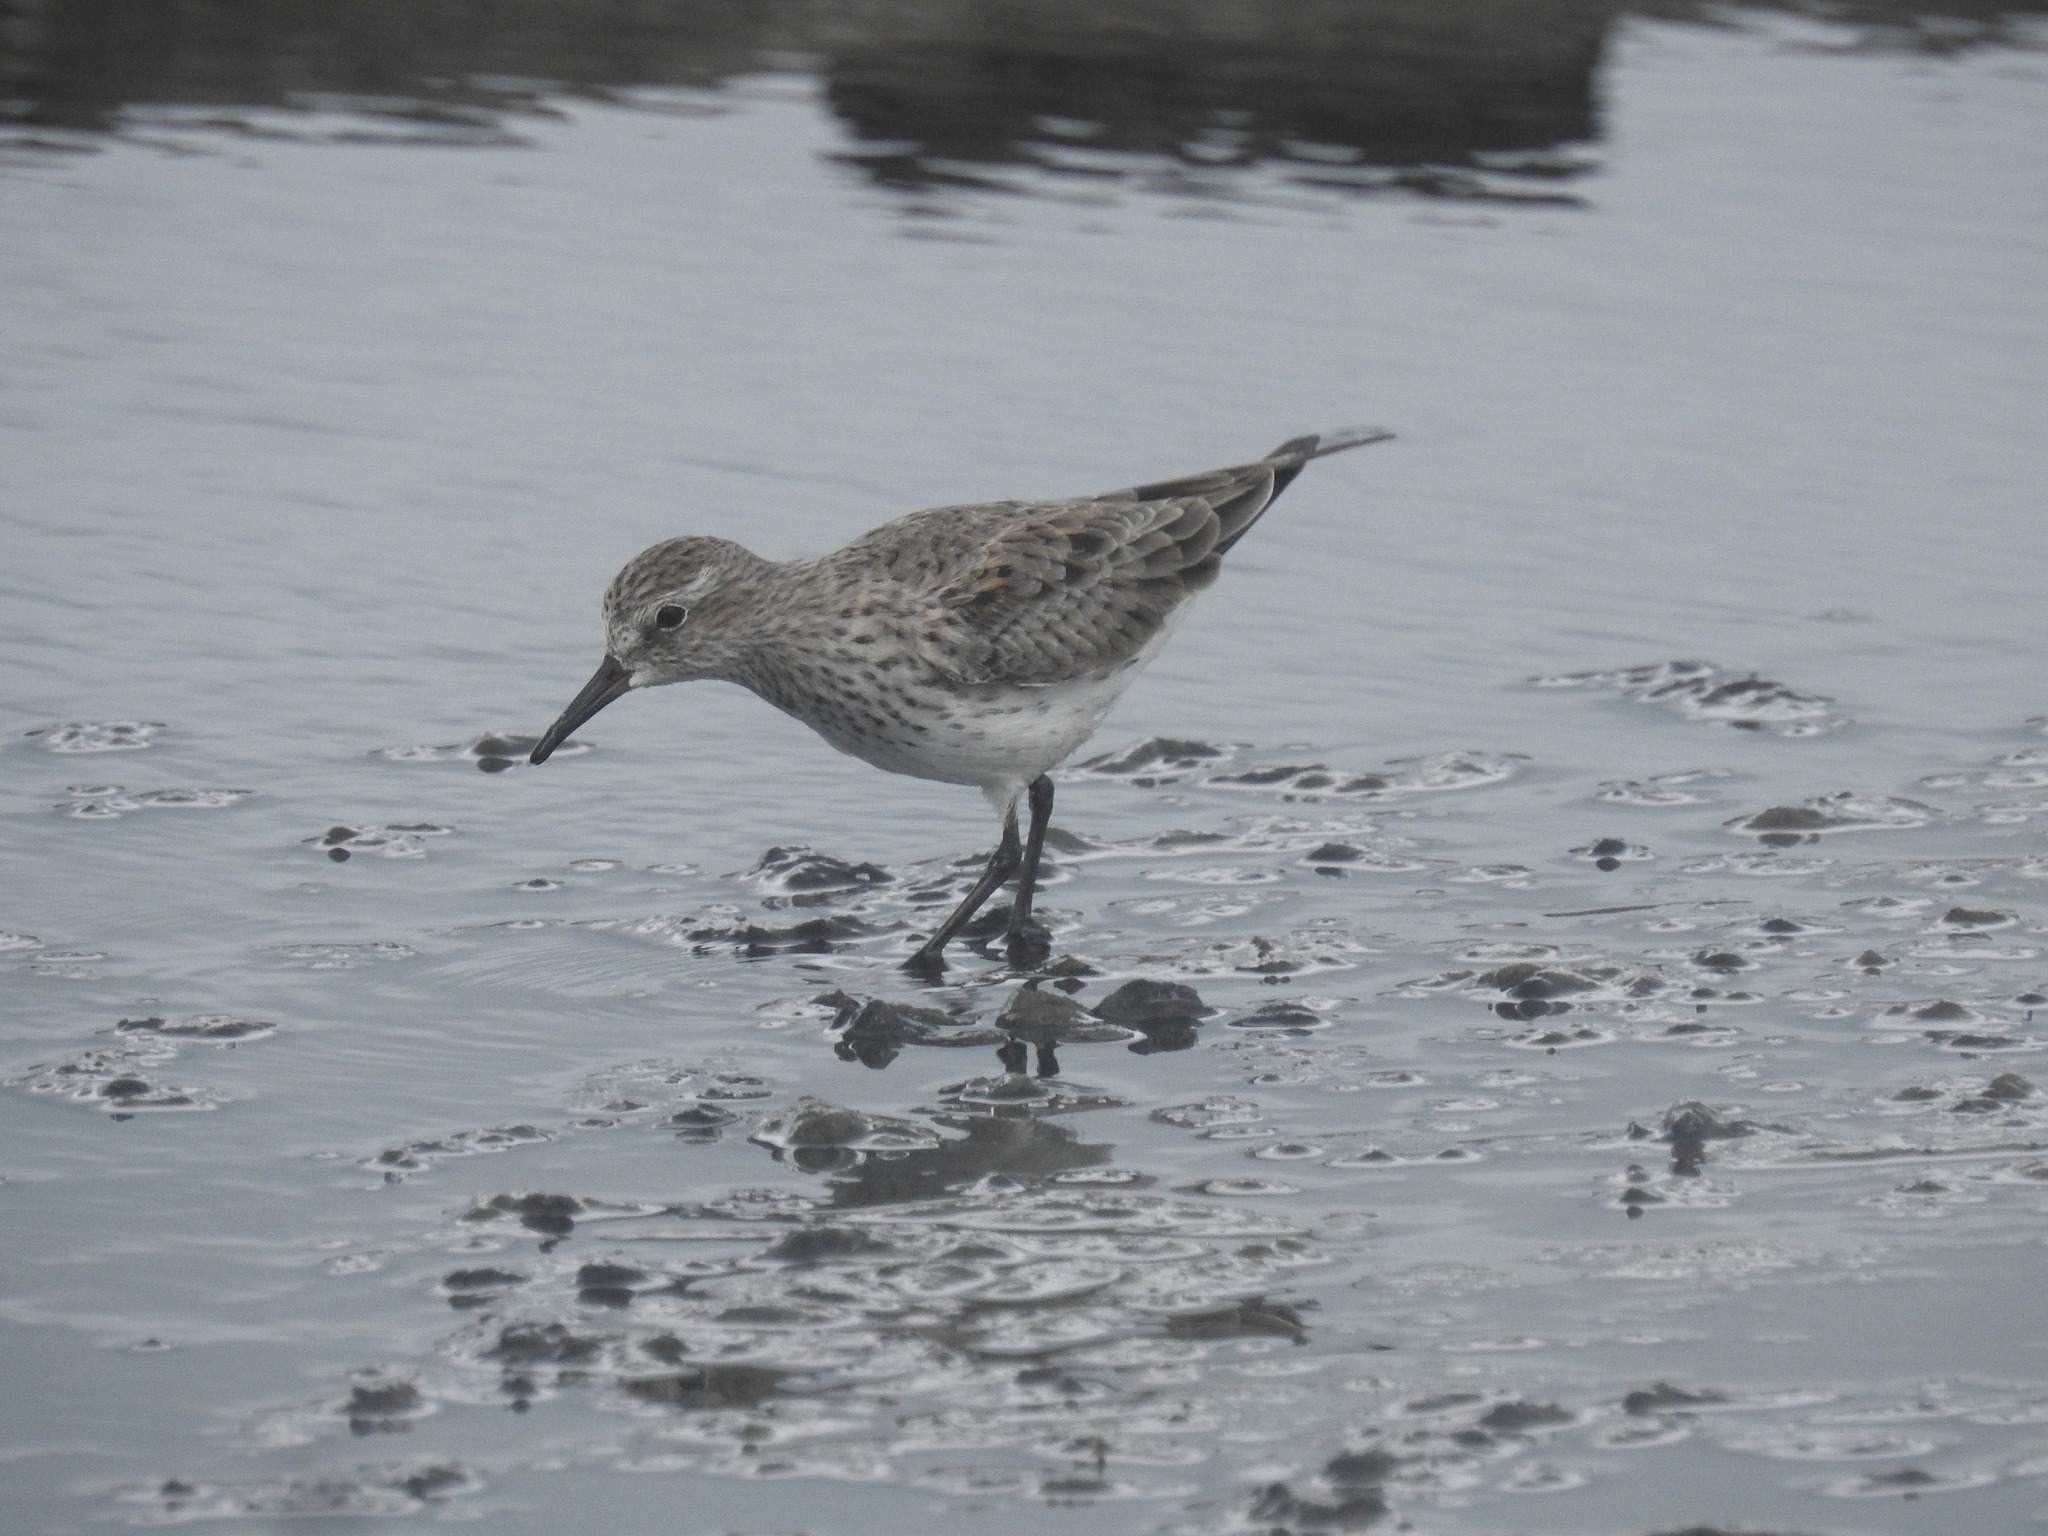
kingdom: Animalia
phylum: Chordata
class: Aves
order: Charadriiformes
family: Scolopacidae
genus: Calidris
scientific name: Calidris fuscicollis
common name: White-rumped sandpiper
